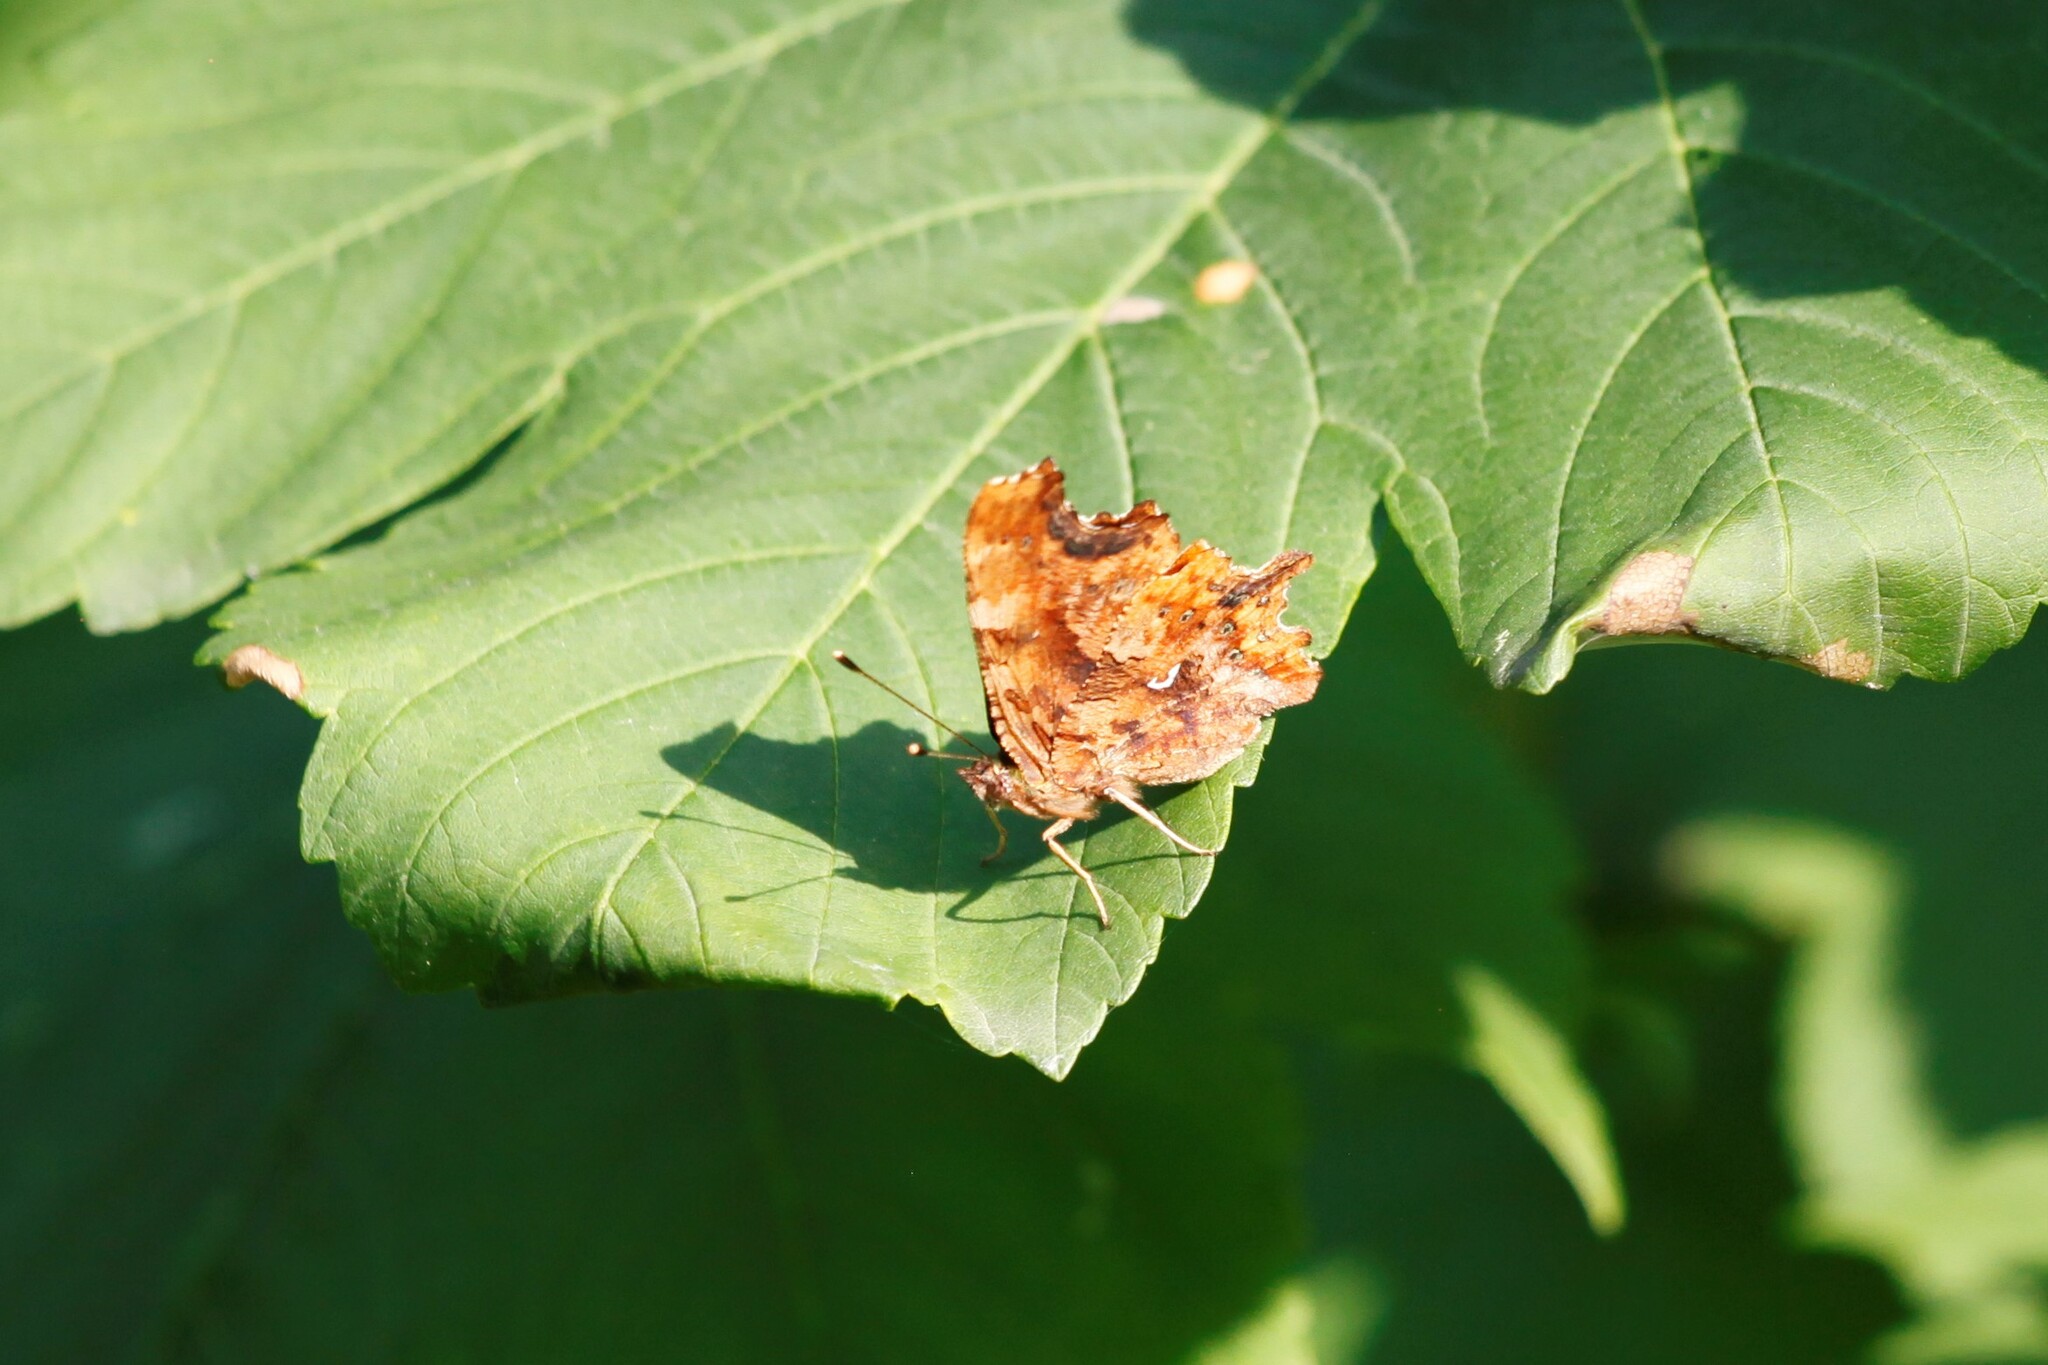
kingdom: Animalia
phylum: Arthropoda
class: Insecta
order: Lepidoptera
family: Nymphalidae
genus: Polygonia
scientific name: Polygonia c-album
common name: Comma
